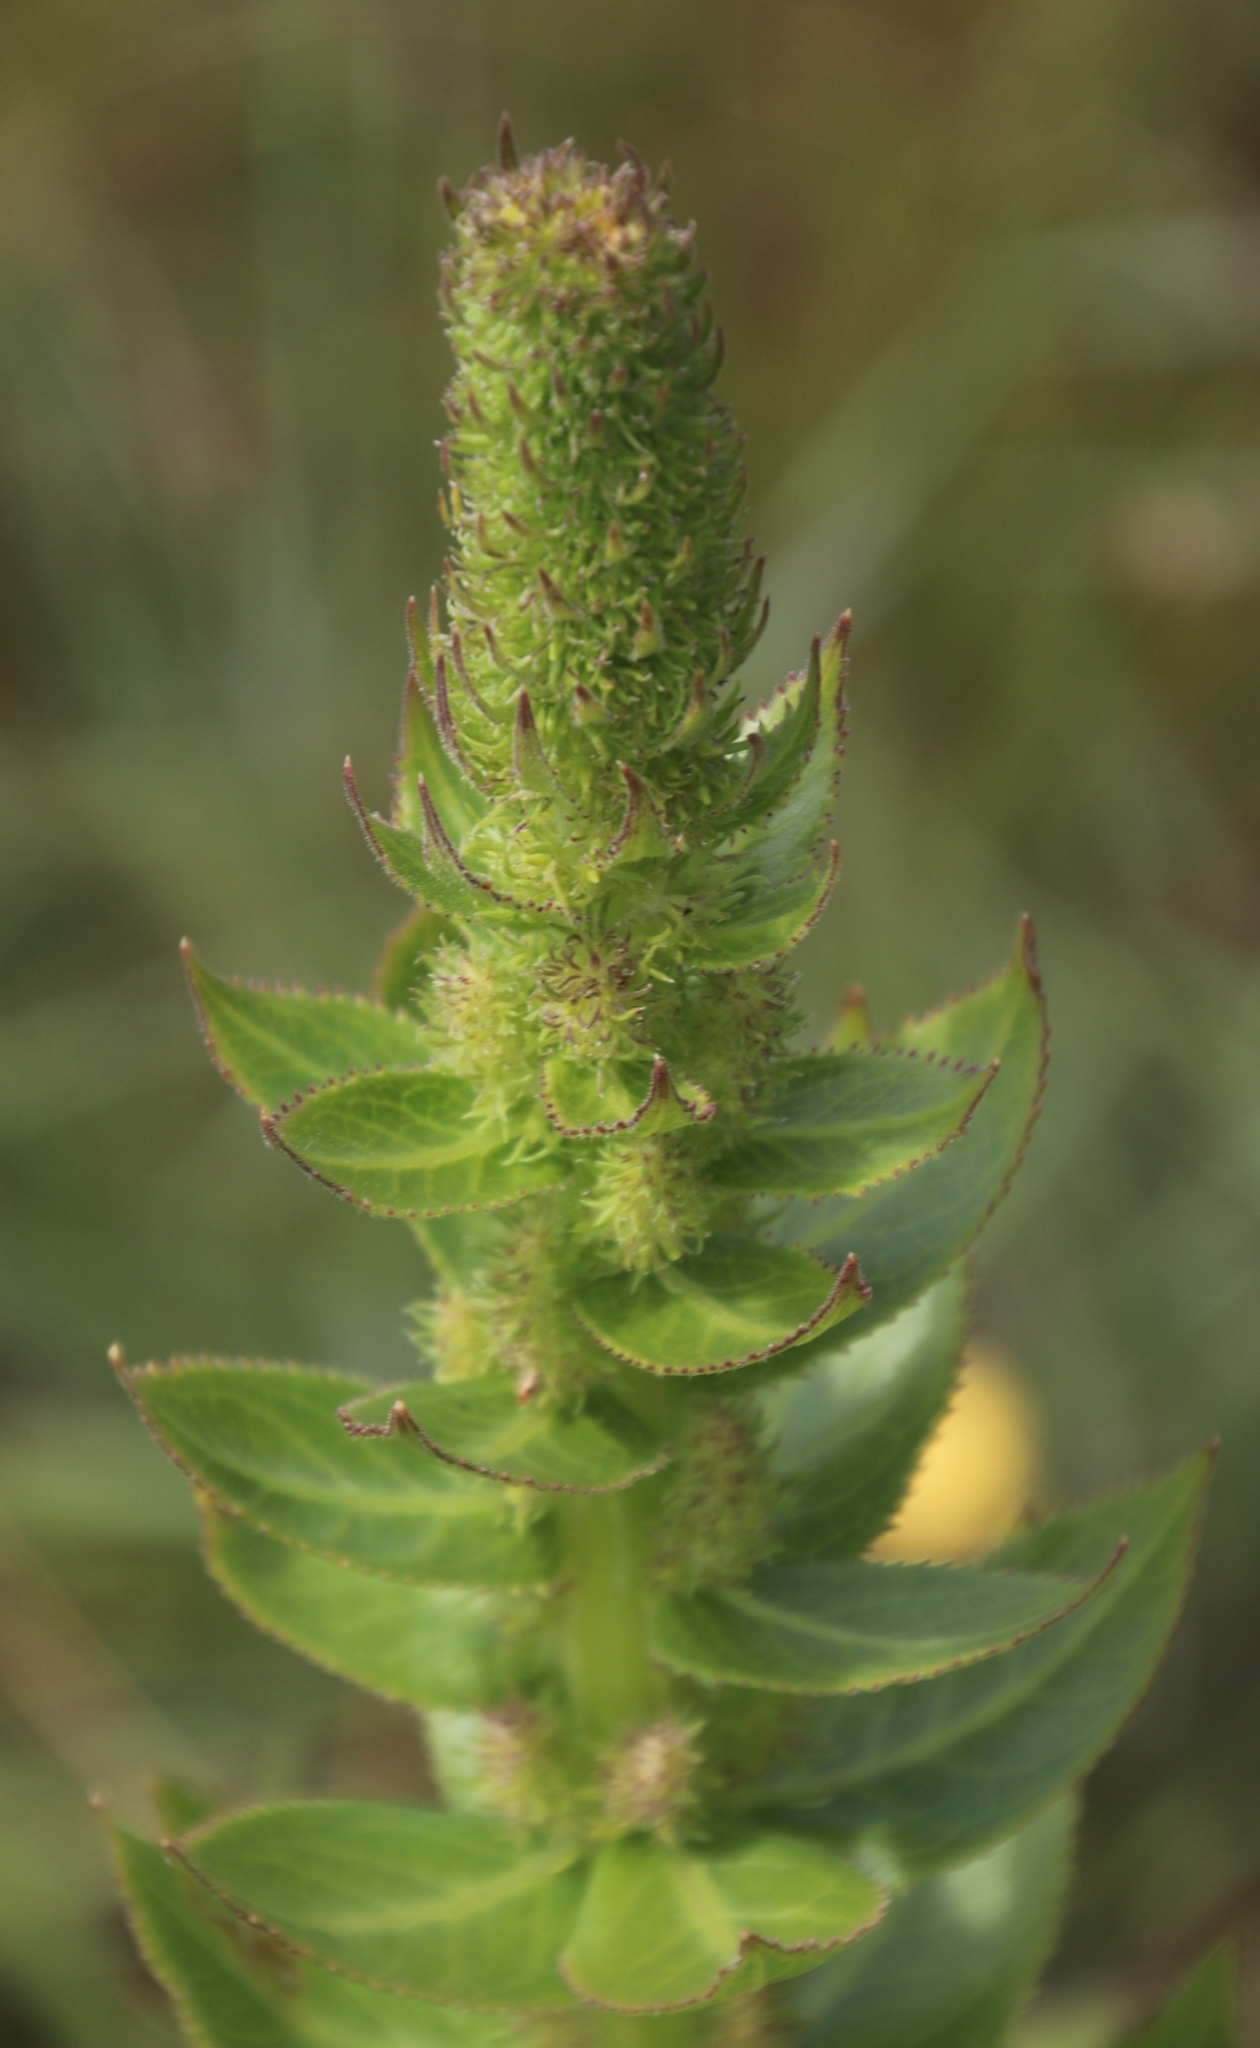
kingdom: Plantae
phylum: Tracheophyta
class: Magnoliopsida
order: Asterales
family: Campanulaceae
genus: Cyphia
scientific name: Cyphia elata
